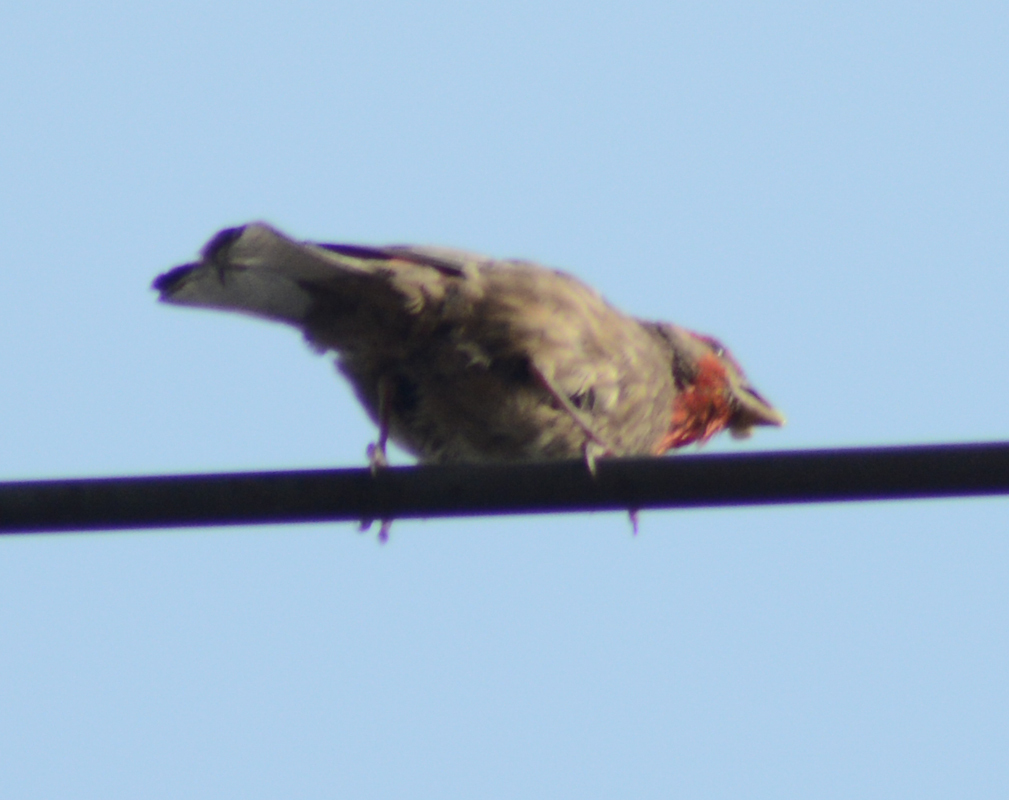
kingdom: Animalia
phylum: Chordata
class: Aves
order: Passeriformes
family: Fringillidae
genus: Haemorhous
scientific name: Haemorhous mexicanus
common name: House finch
